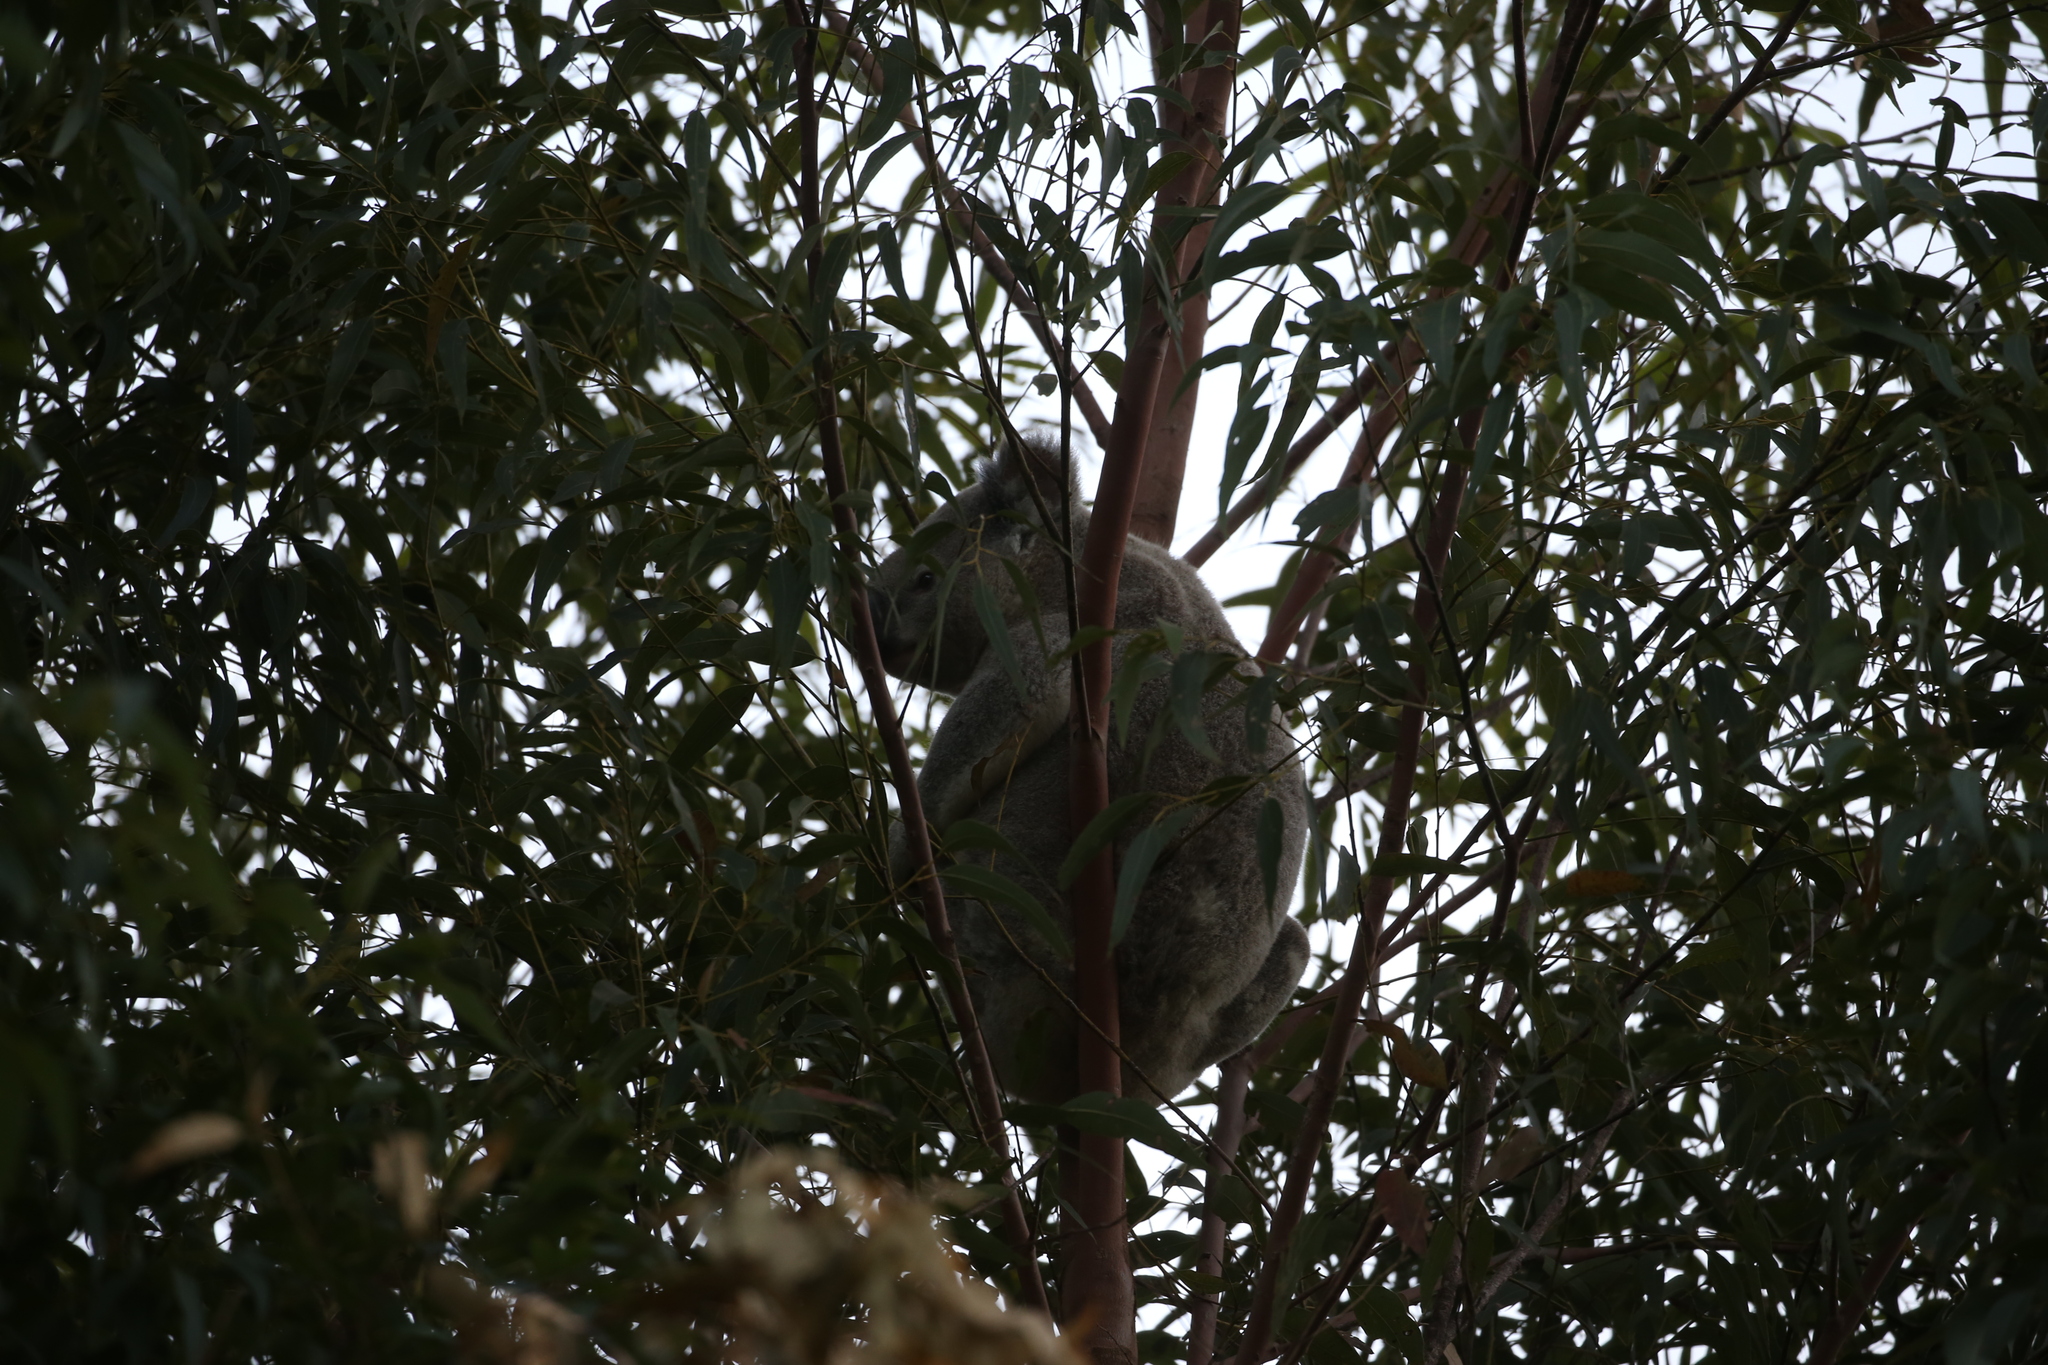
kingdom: Animalia
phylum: Chordata
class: Mammalia
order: Diprotodontia
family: Phascolarctidae
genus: Phascolarctos
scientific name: Phascolarctos cinereus
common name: Koala
